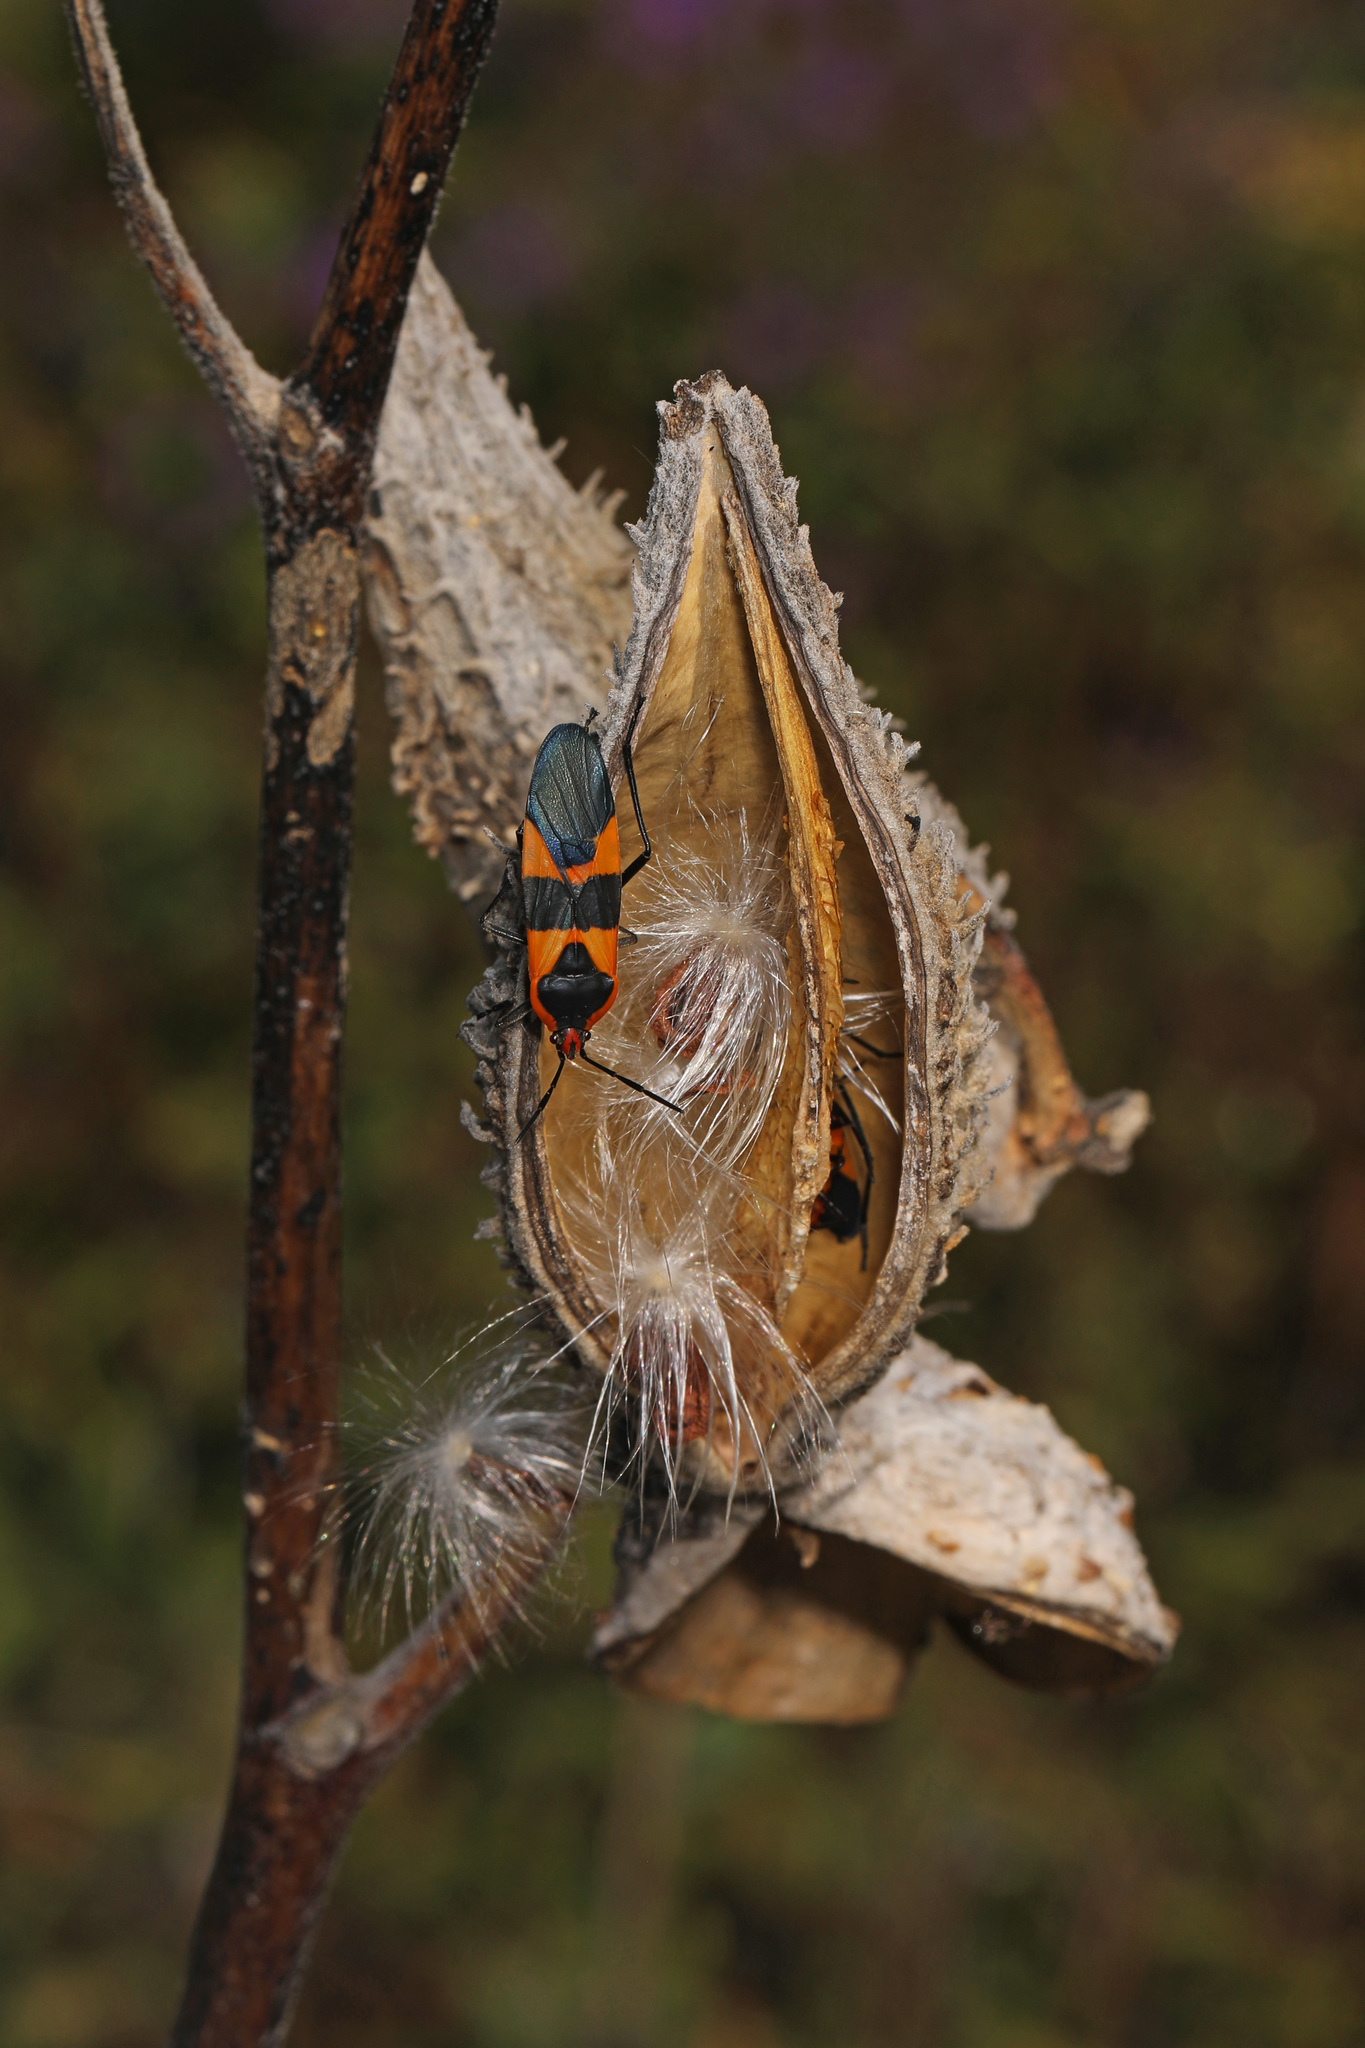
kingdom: Animalia
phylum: Arthropoda
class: Insecta
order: Hemiptera
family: Lygaeidae
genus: Oncopeltus
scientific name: Oncopeltus fasciatus
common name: Large milkweed bug
